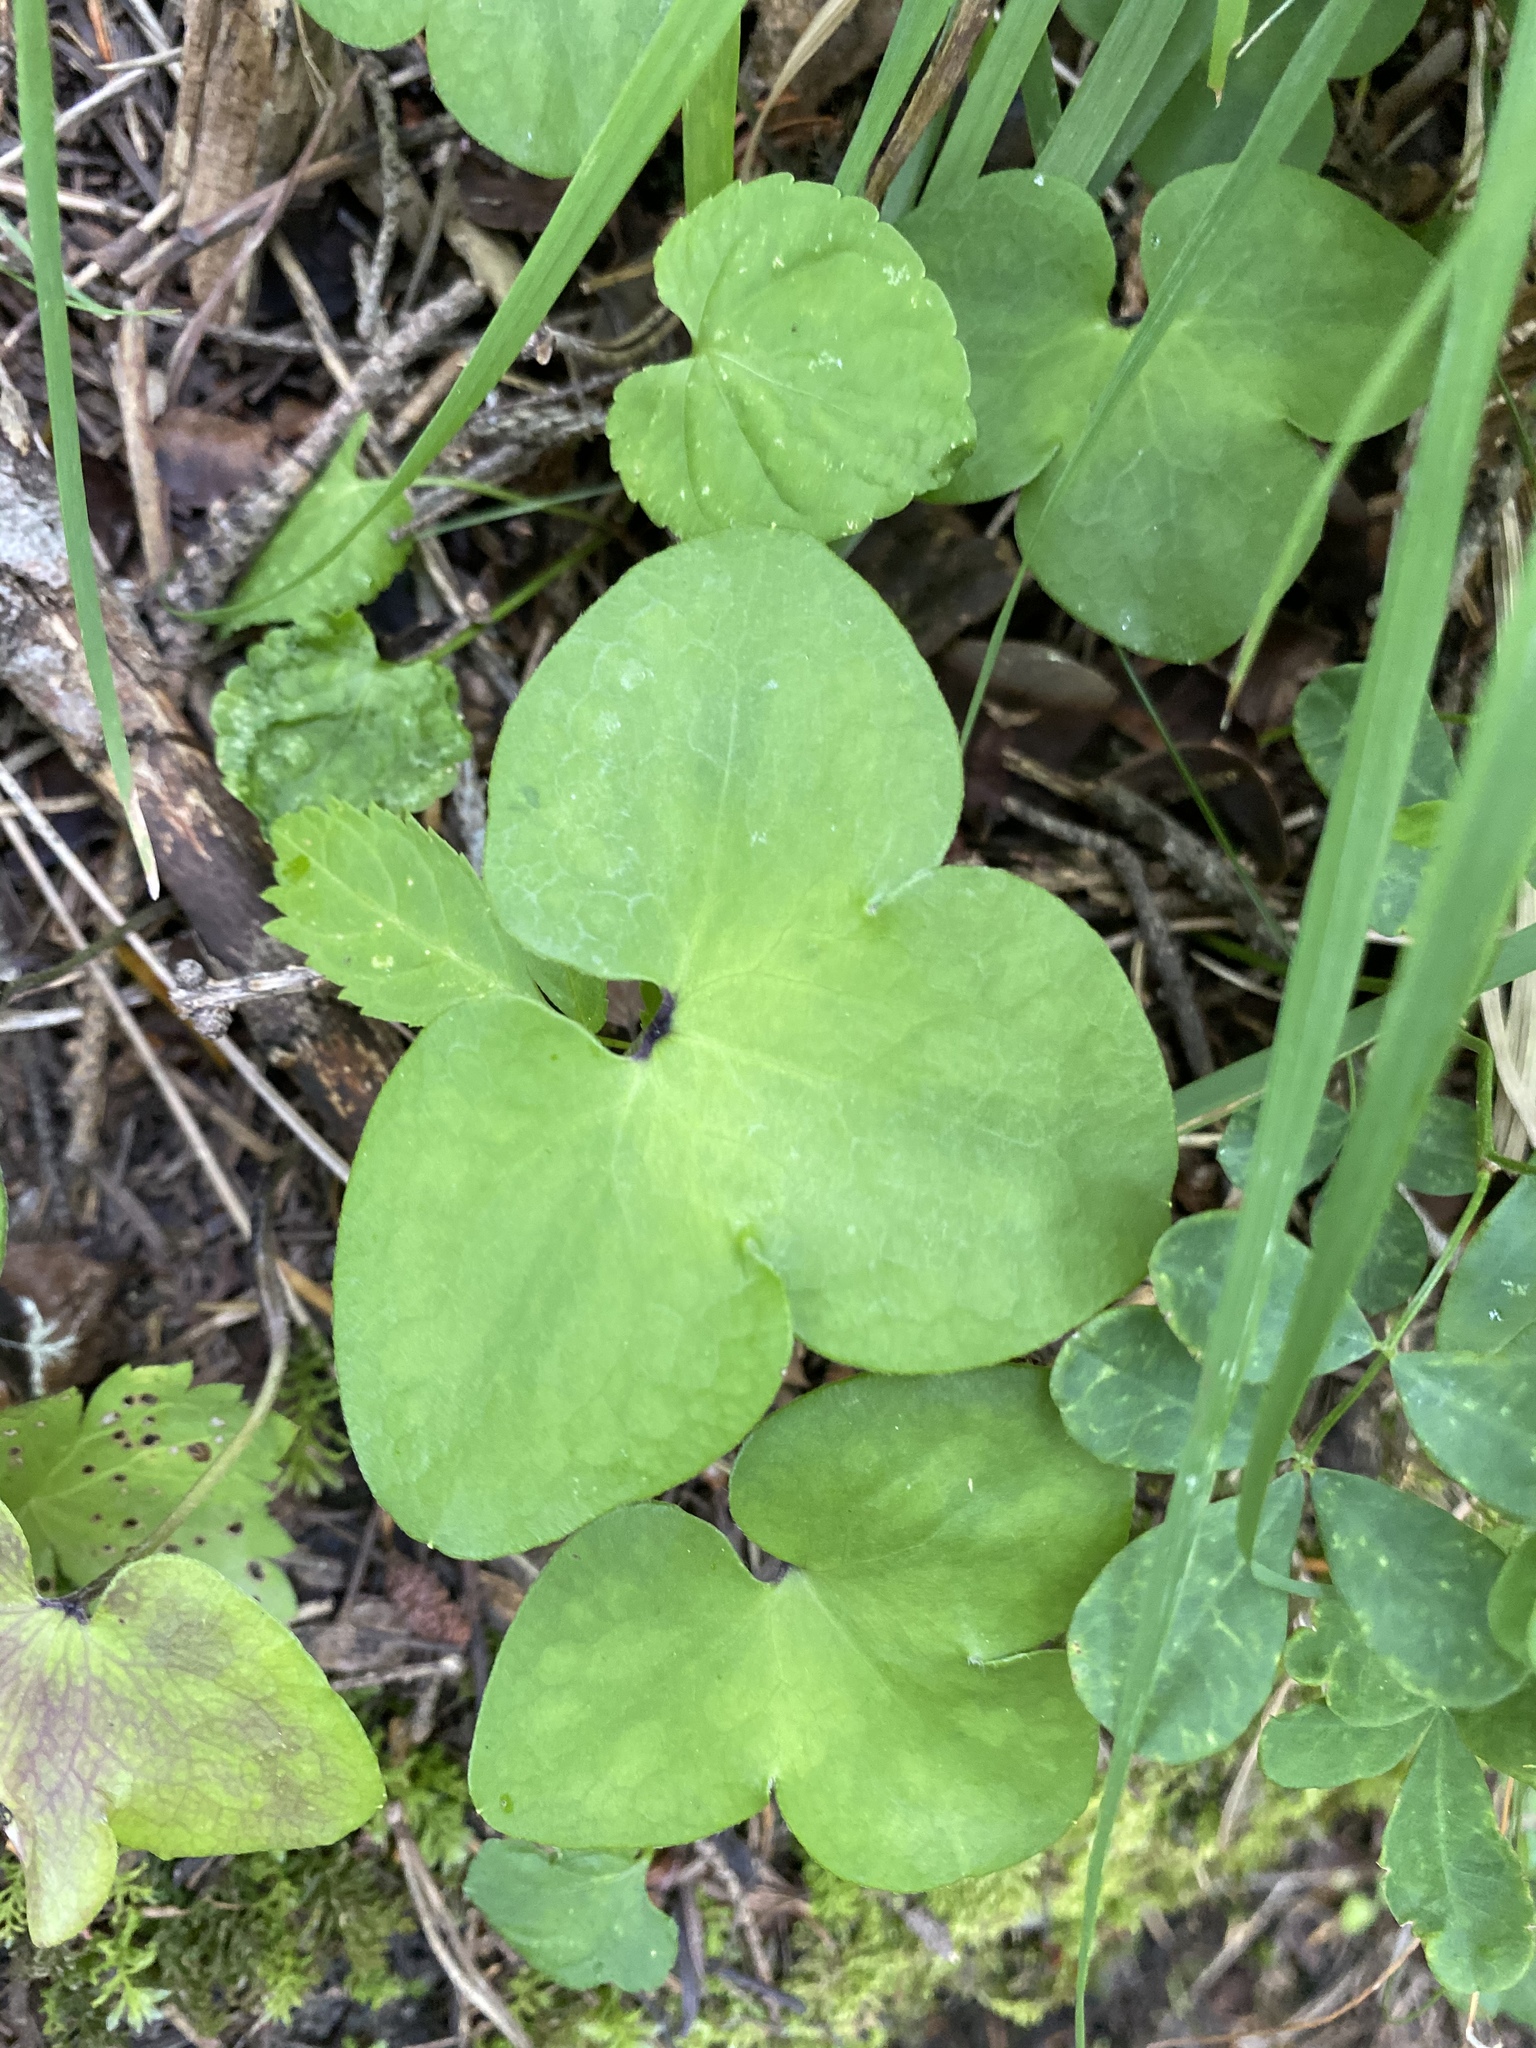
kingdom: Plantae
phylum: Tracheophyta
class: Magnoliopsida
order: Ranunculales
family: Ranunculaceae
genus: Hepatica
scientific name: Hepatica nobilis
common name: Liverleaf
